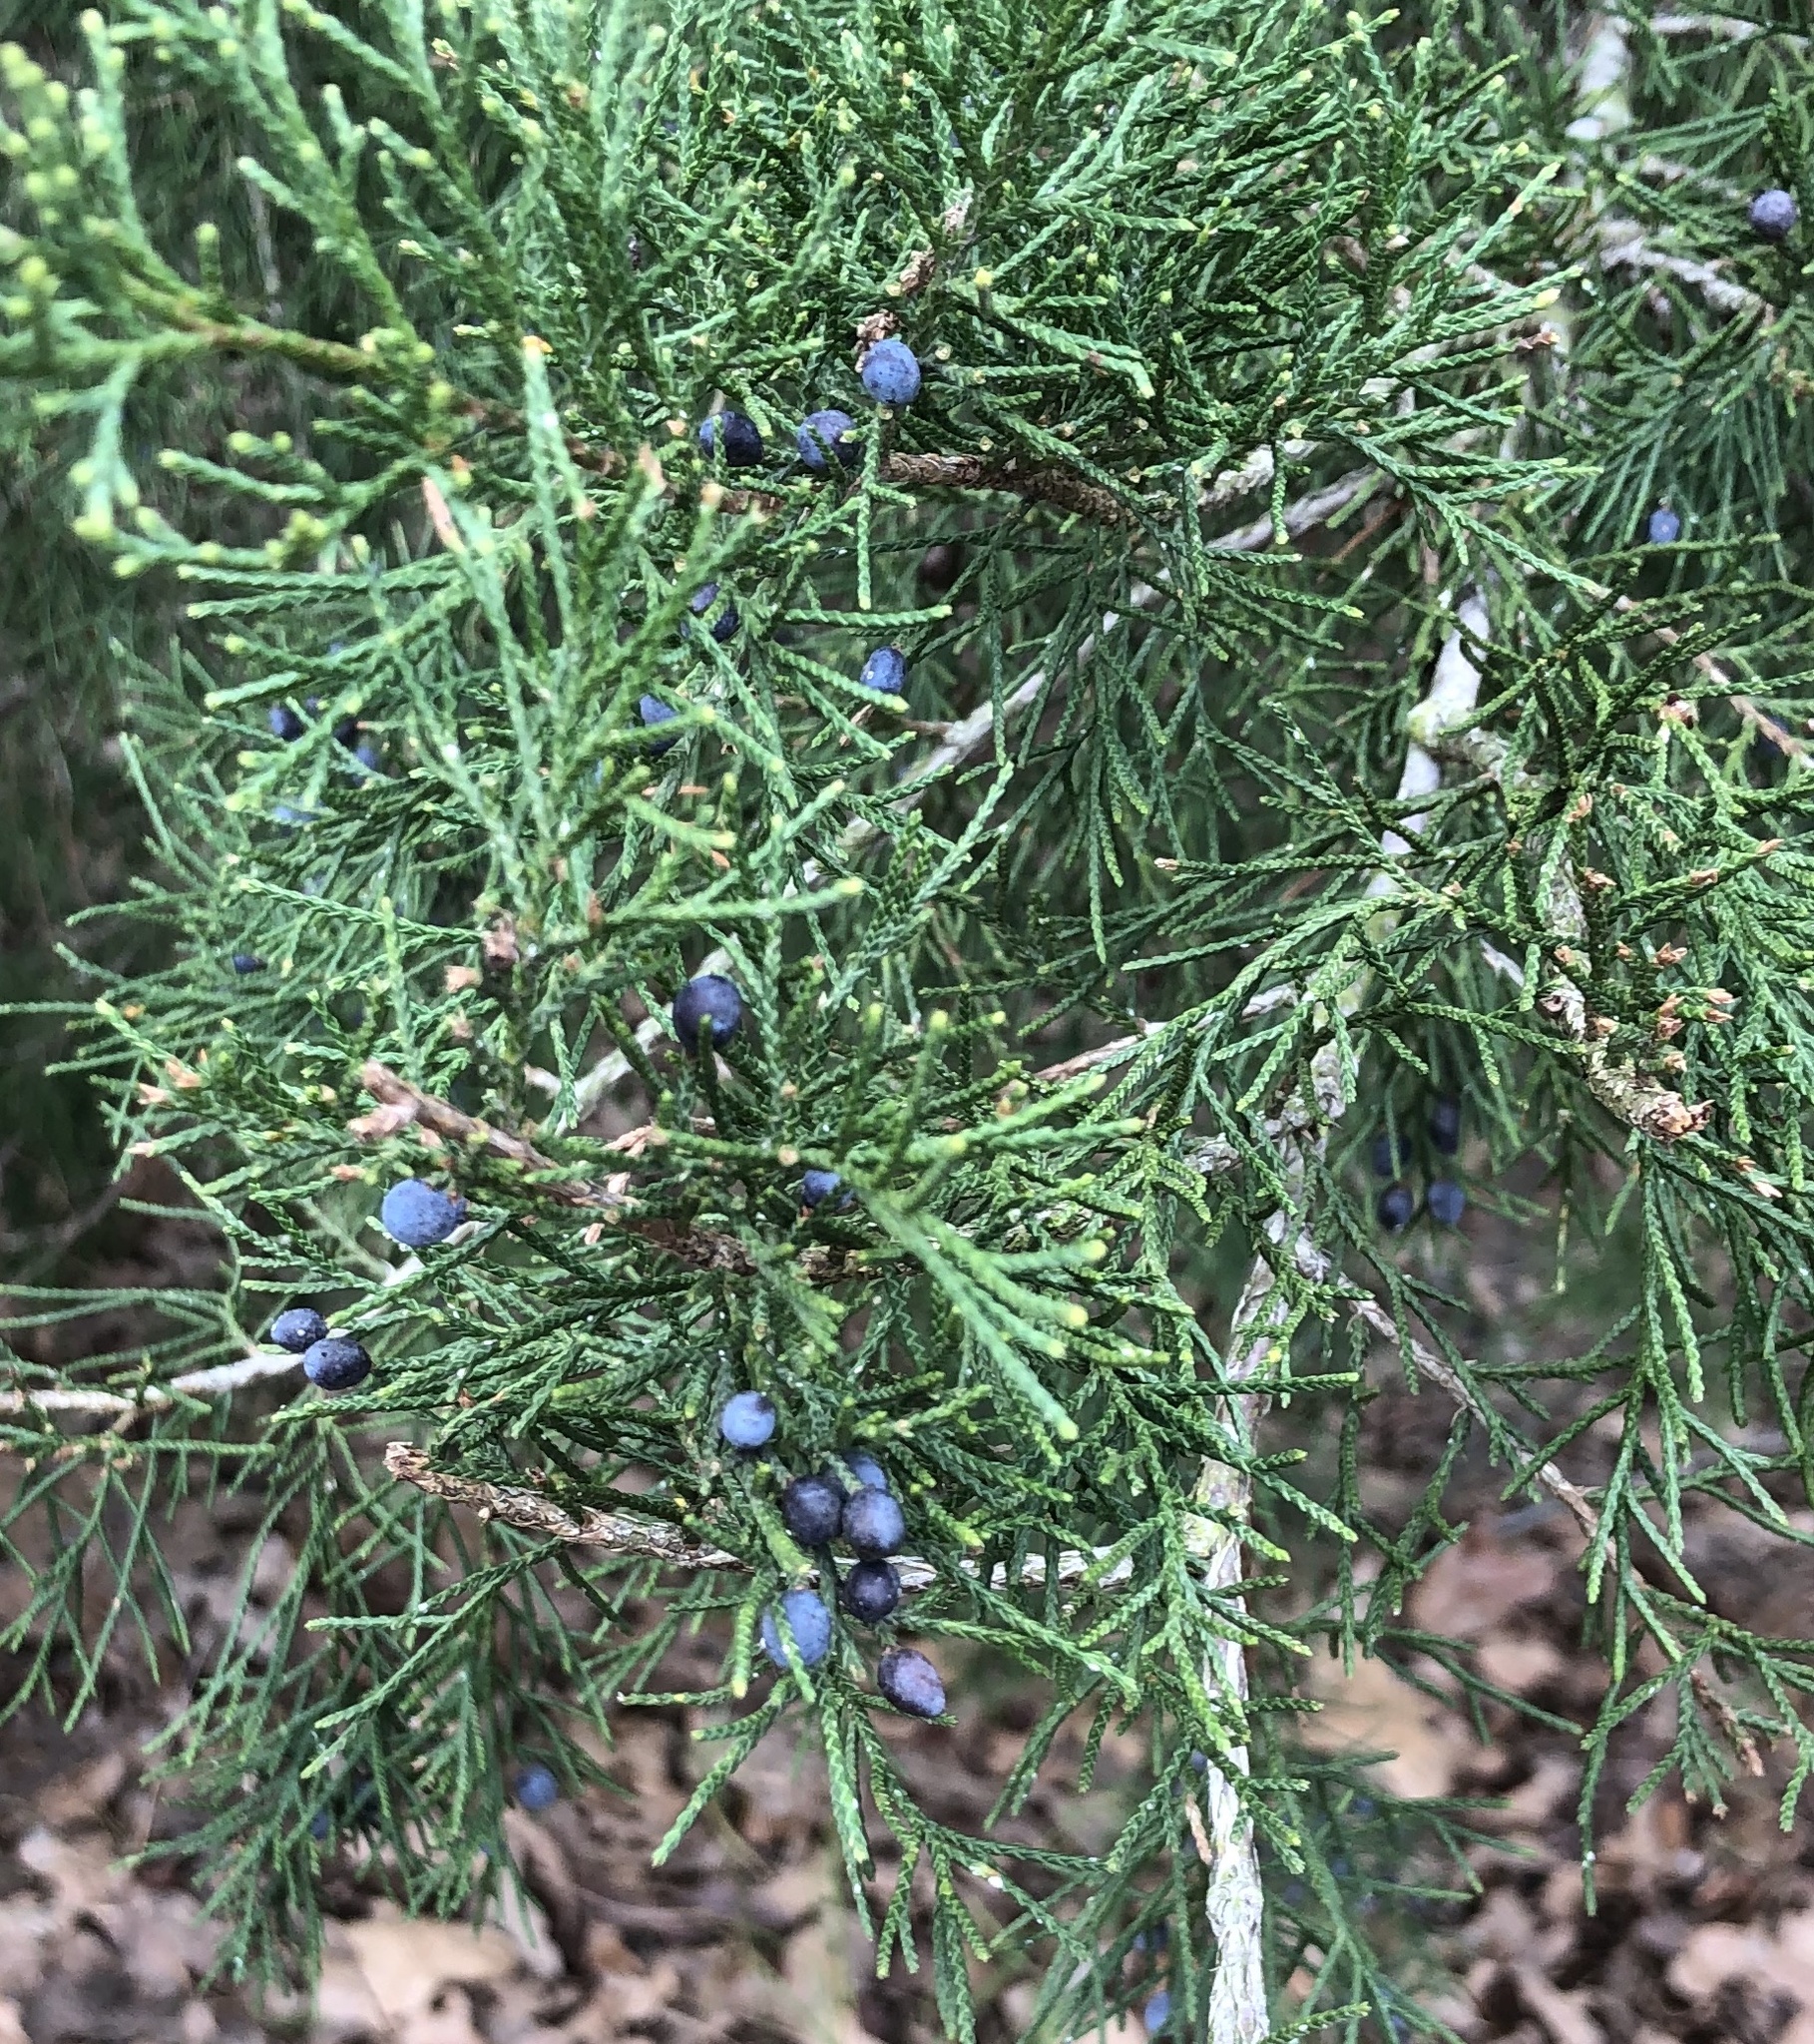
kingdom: Plantae
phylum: Tracheophyta
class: Pinopsida
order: Pinales
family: Cupressaceae
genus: Juniperus
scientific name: Juniperus virginiana
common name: Red juniper
